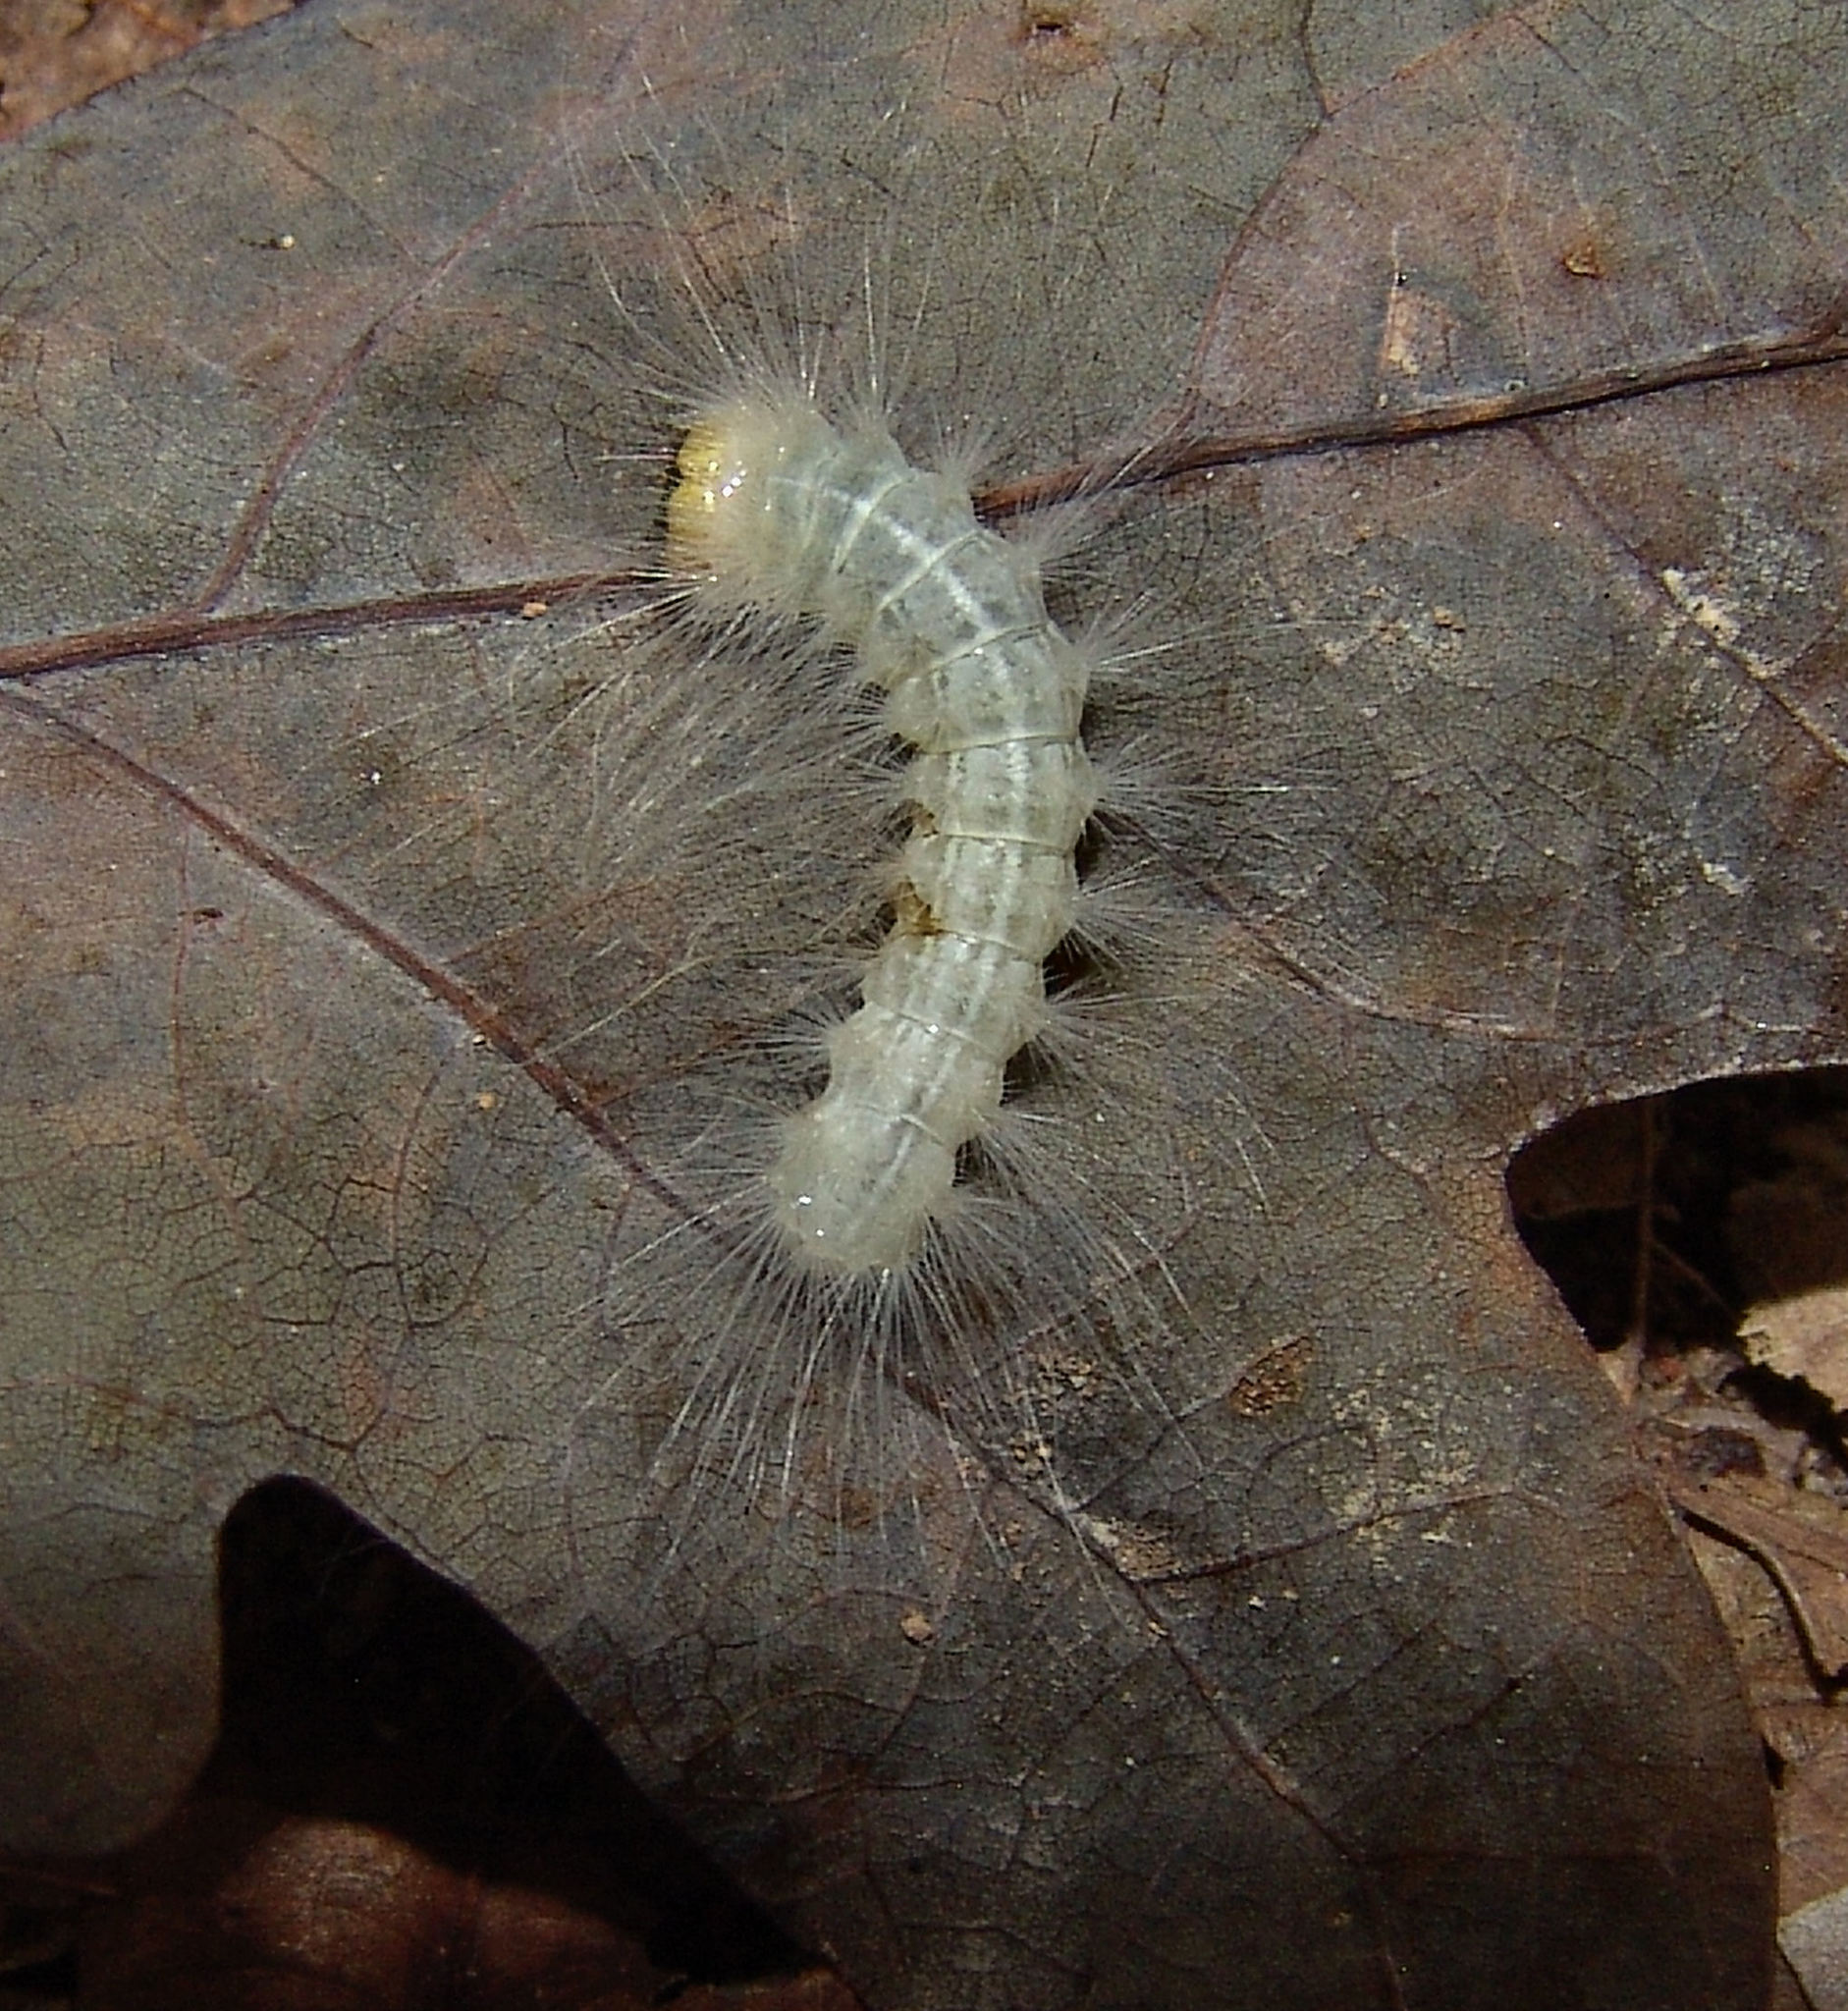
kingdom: Animalia
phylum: Arthropoda
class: Insecta
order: Lepidoptera
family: Noctuidae
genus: Charadra
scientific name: Charadra deridens
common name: Marbled tuffet
